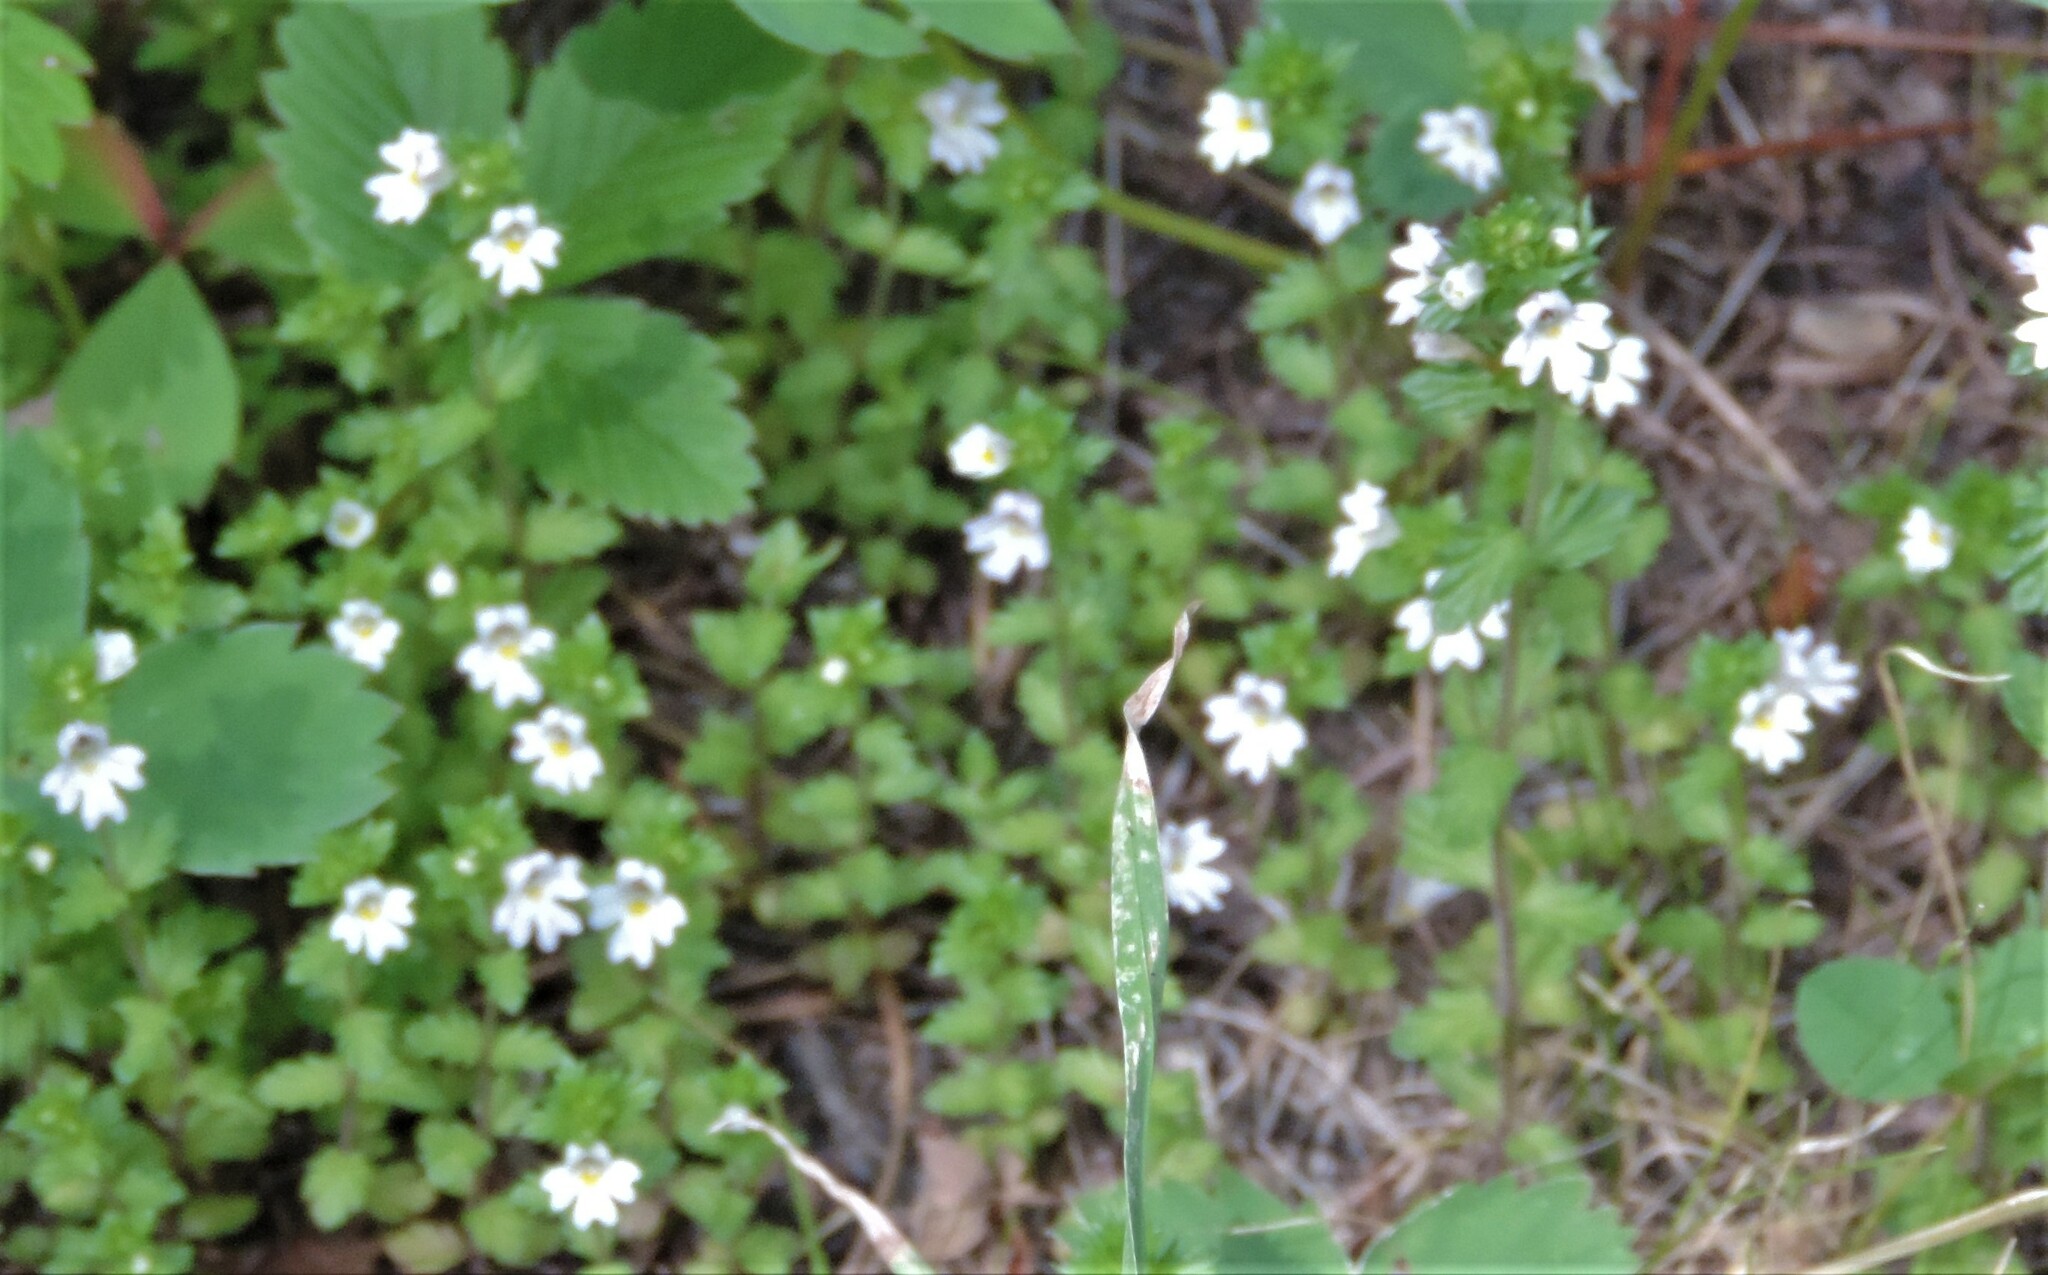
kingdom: Plantae
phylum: Tracheophyta
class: Magnoliopsida
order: Lamiales
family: Orobanchaceae
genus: Euphrasia
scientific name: Euphrasia nemorosa
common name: Common eyebright
